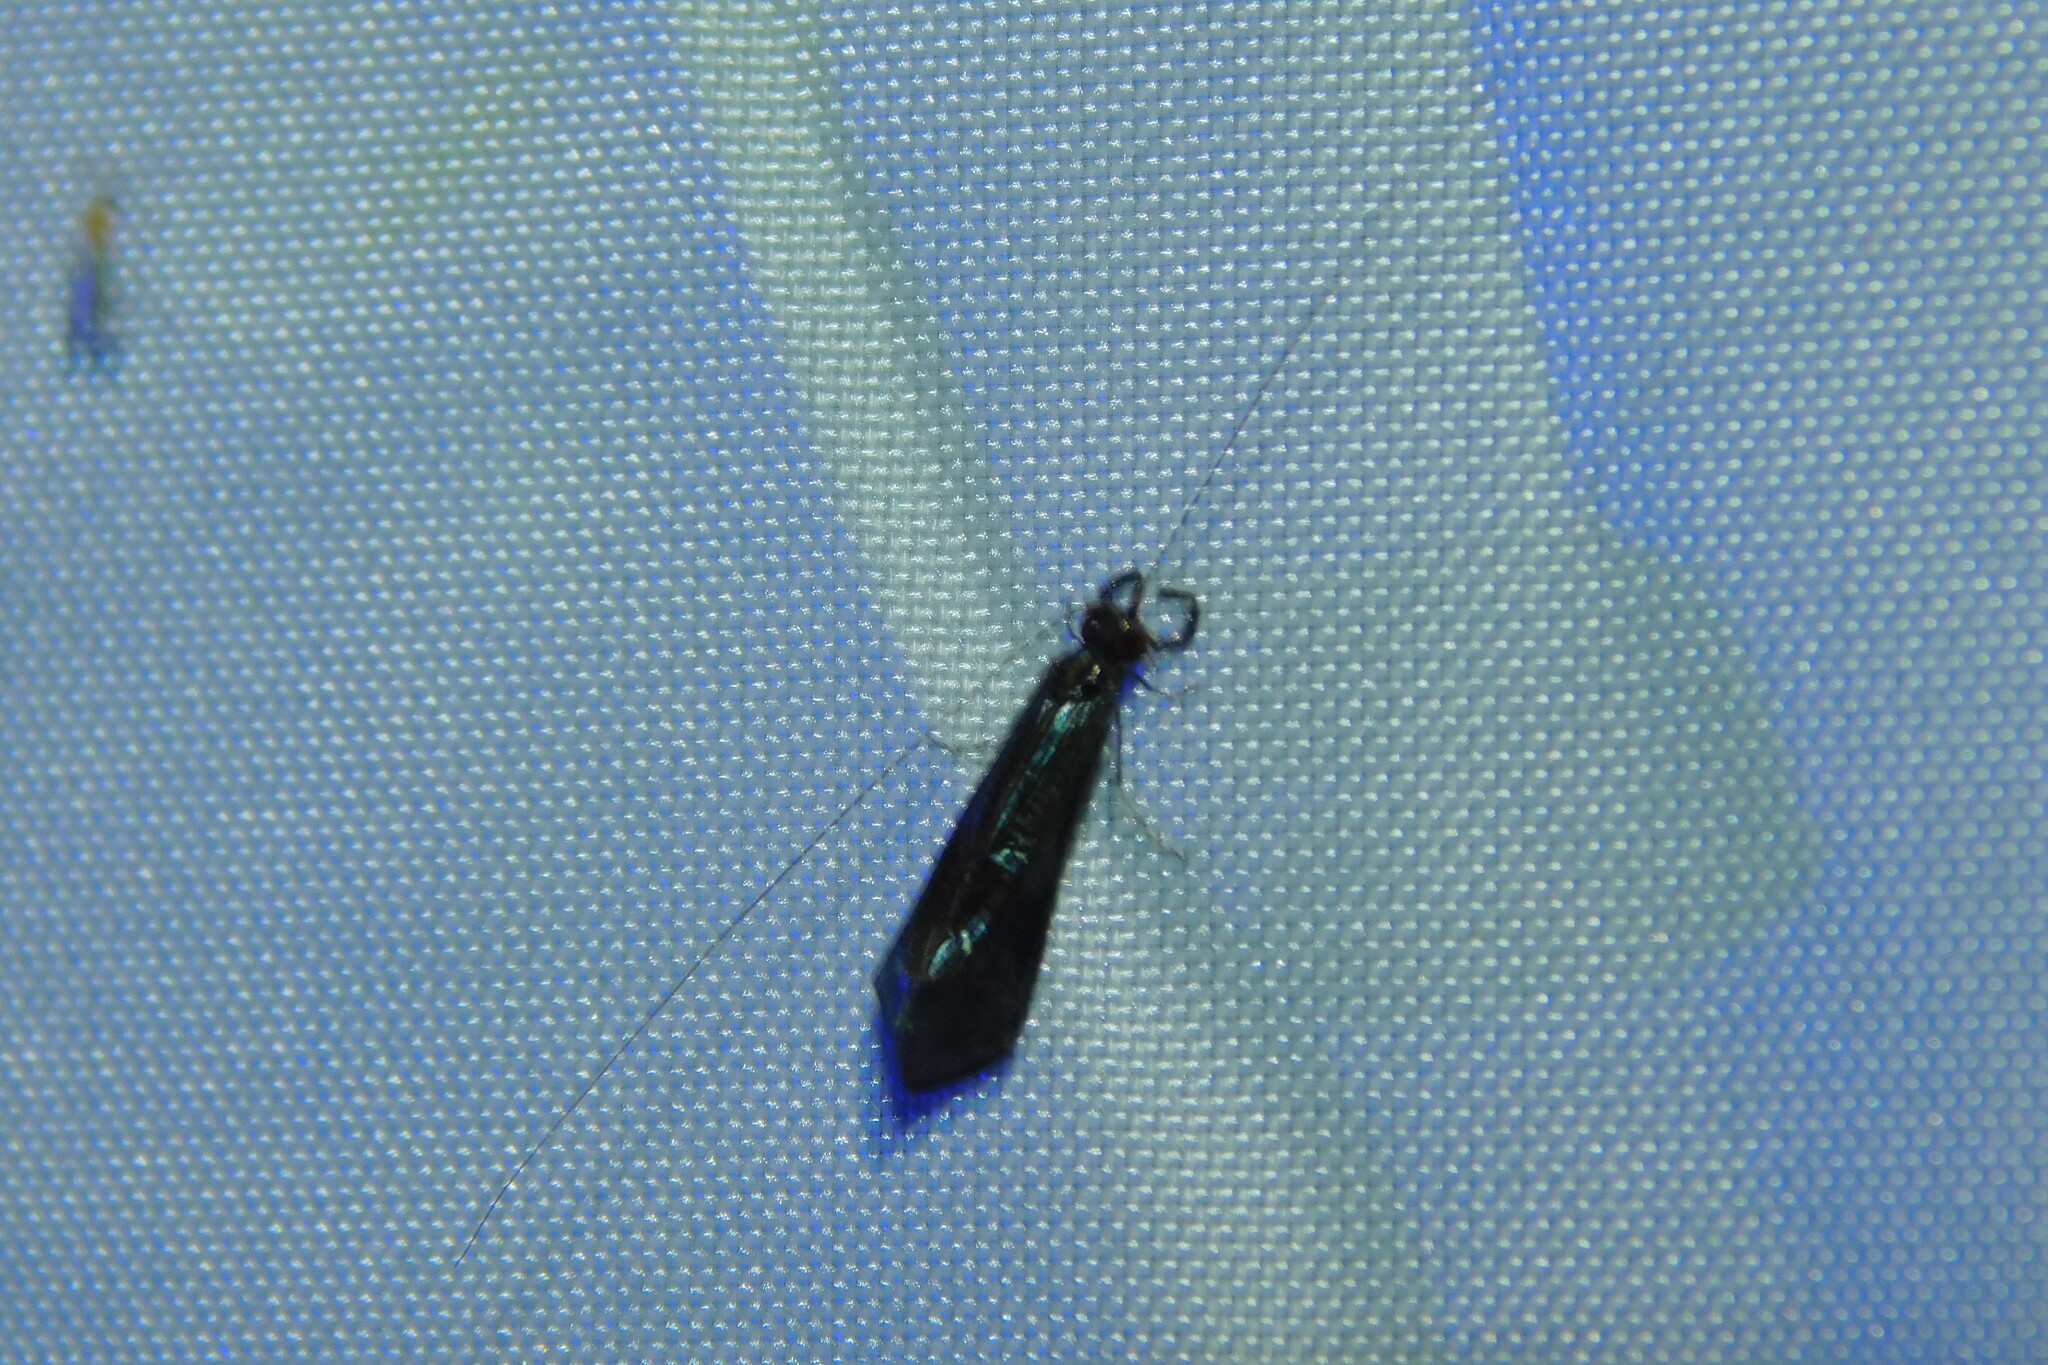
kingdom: Animalia
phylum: Arthropoda
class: Insecta
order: Trichoptera
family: Leptoceridae
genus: Mystacides
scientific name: Mystacides azureus
